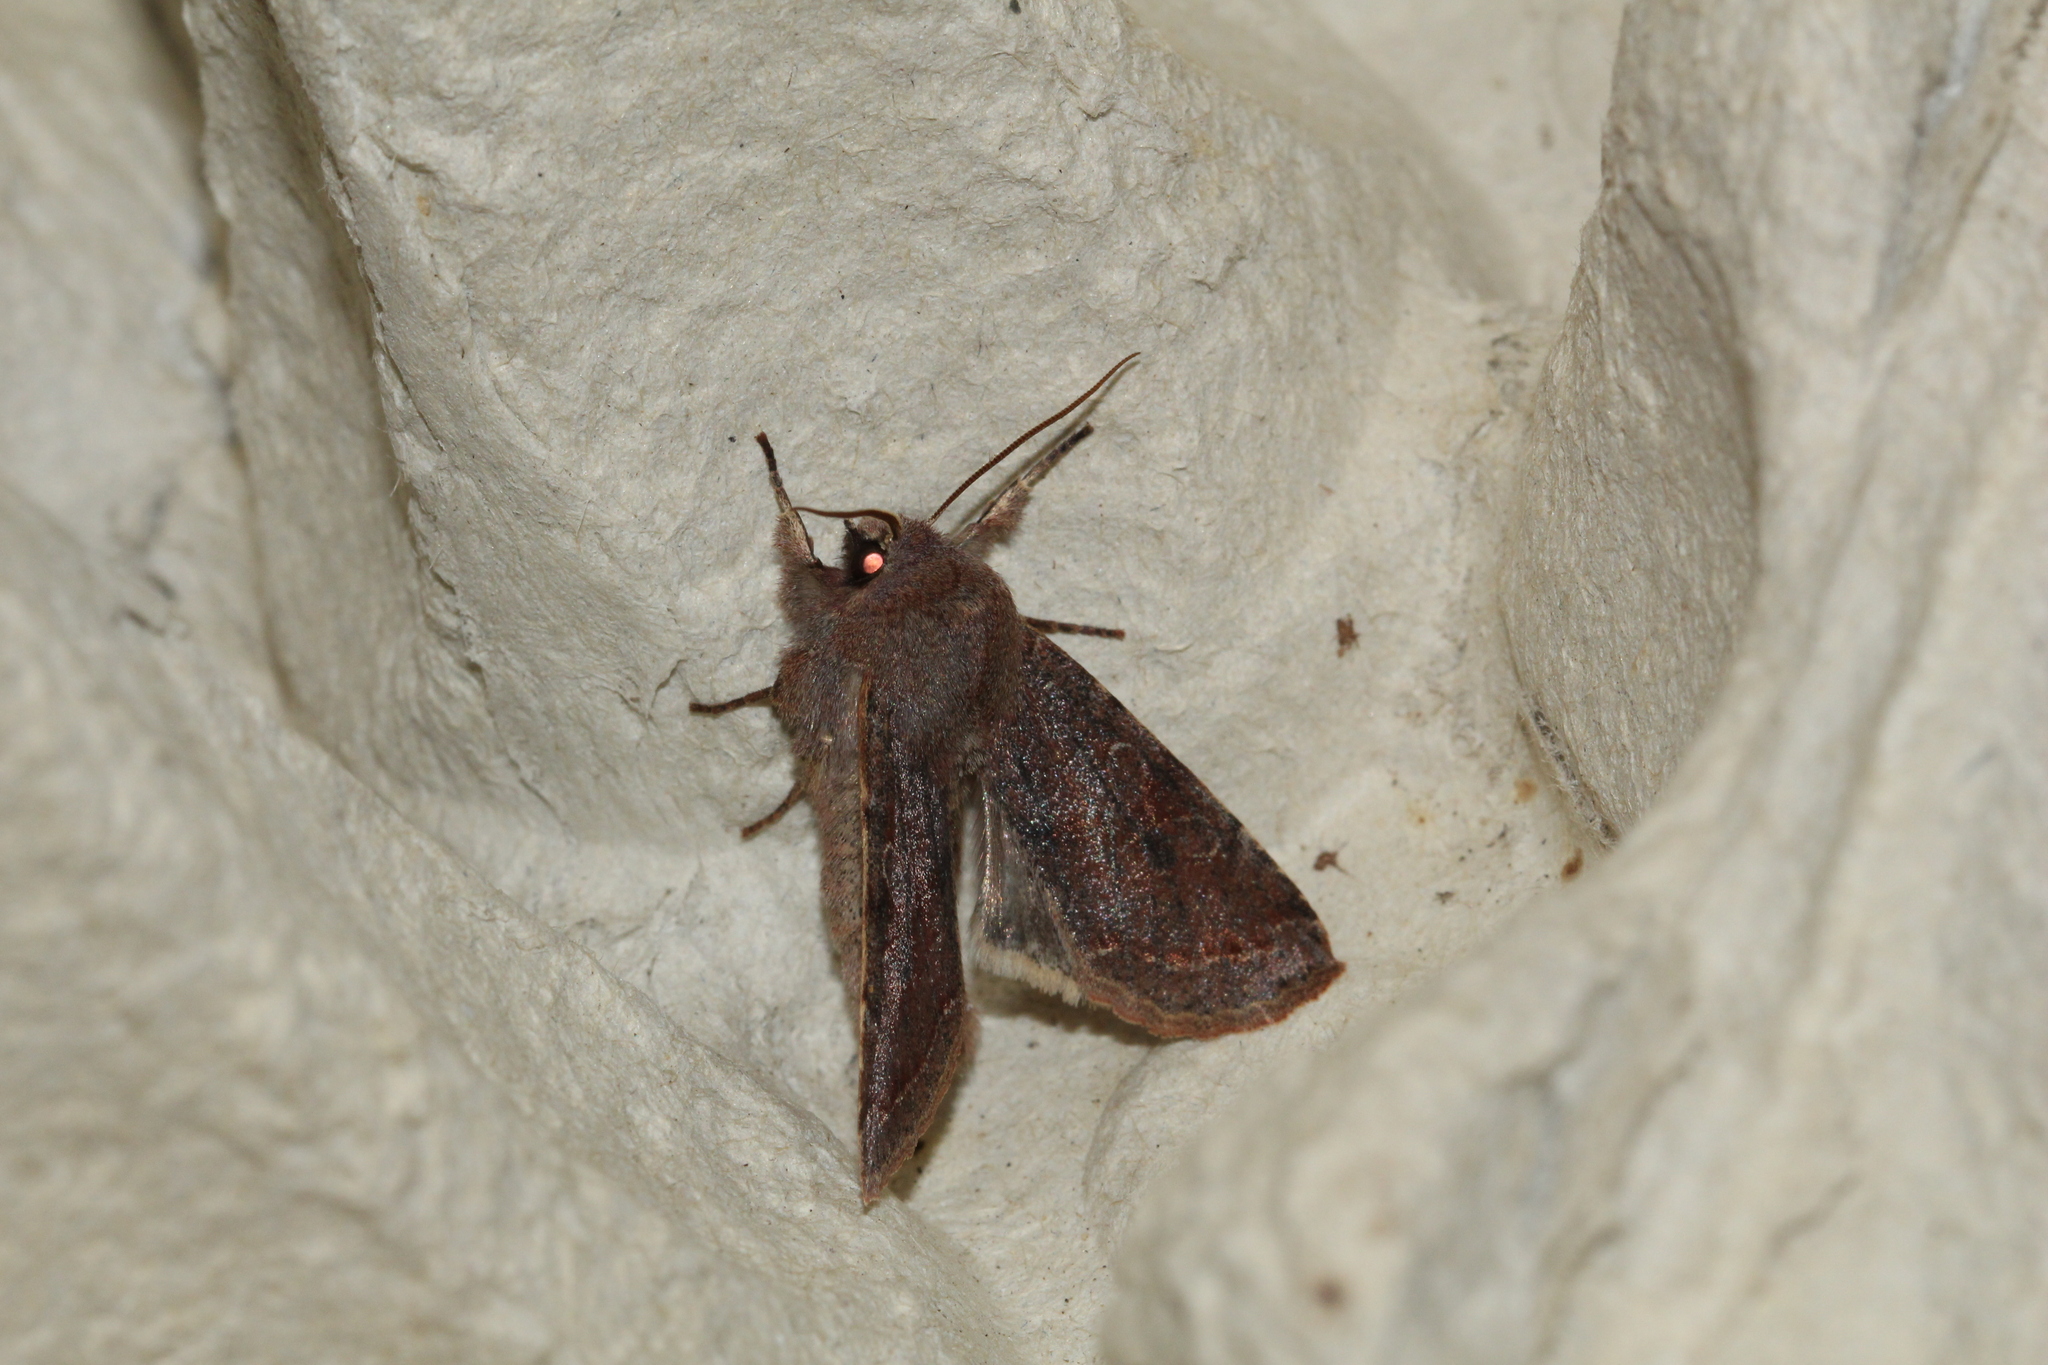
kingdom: Animalia
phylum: Arthropoda
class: Insecta
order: Lepidoptera
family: Noctuidae
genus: Orthosia
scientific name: Orthosia incerta
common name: Clouded drab
